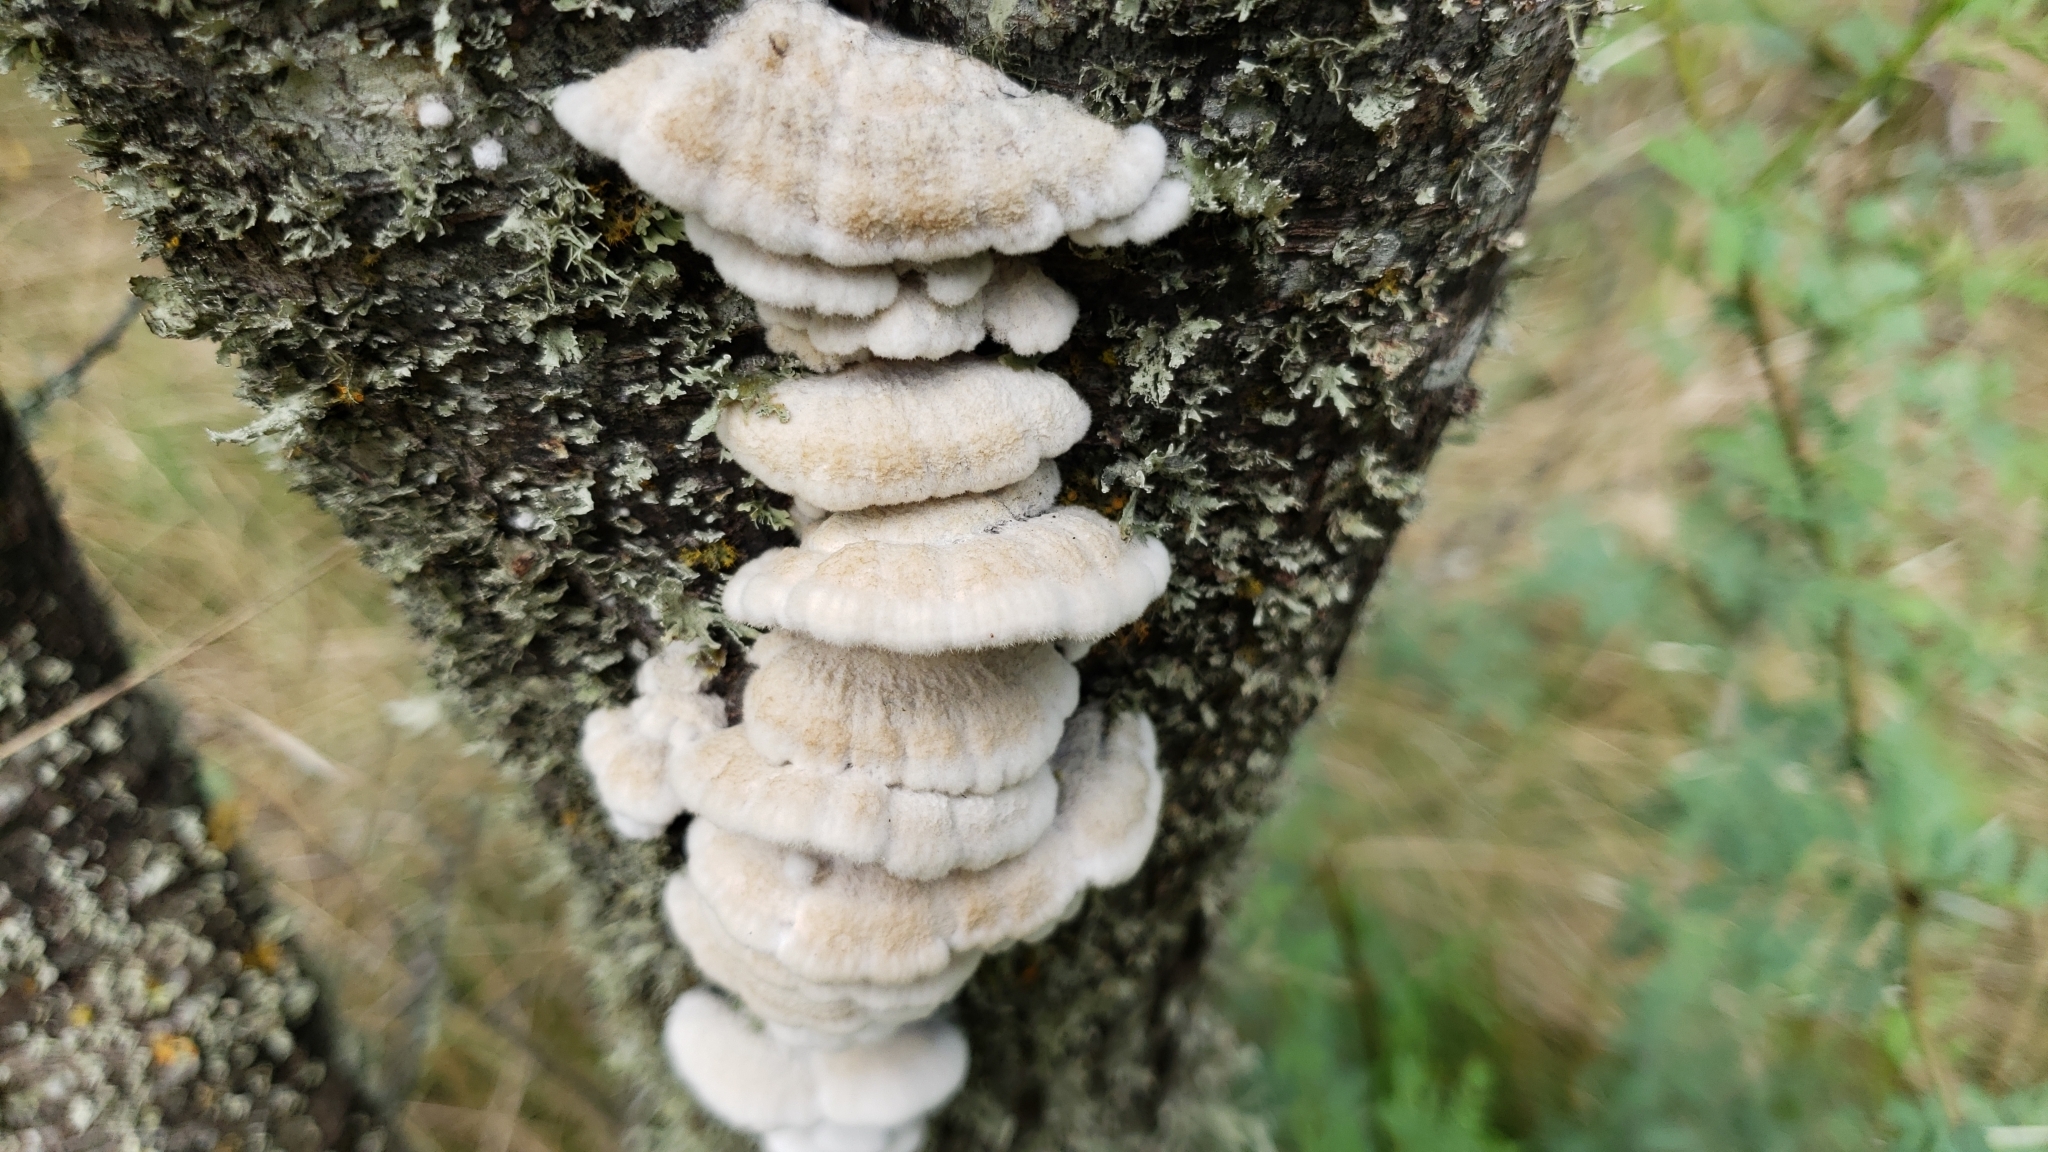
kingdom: Fungi
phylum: Basidiomycota
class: Agaricomycetes
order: Agaricales
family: Schizophyllaceae
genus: Schizophyllum
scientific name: Schizophyllum commune
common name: Common porecrust
